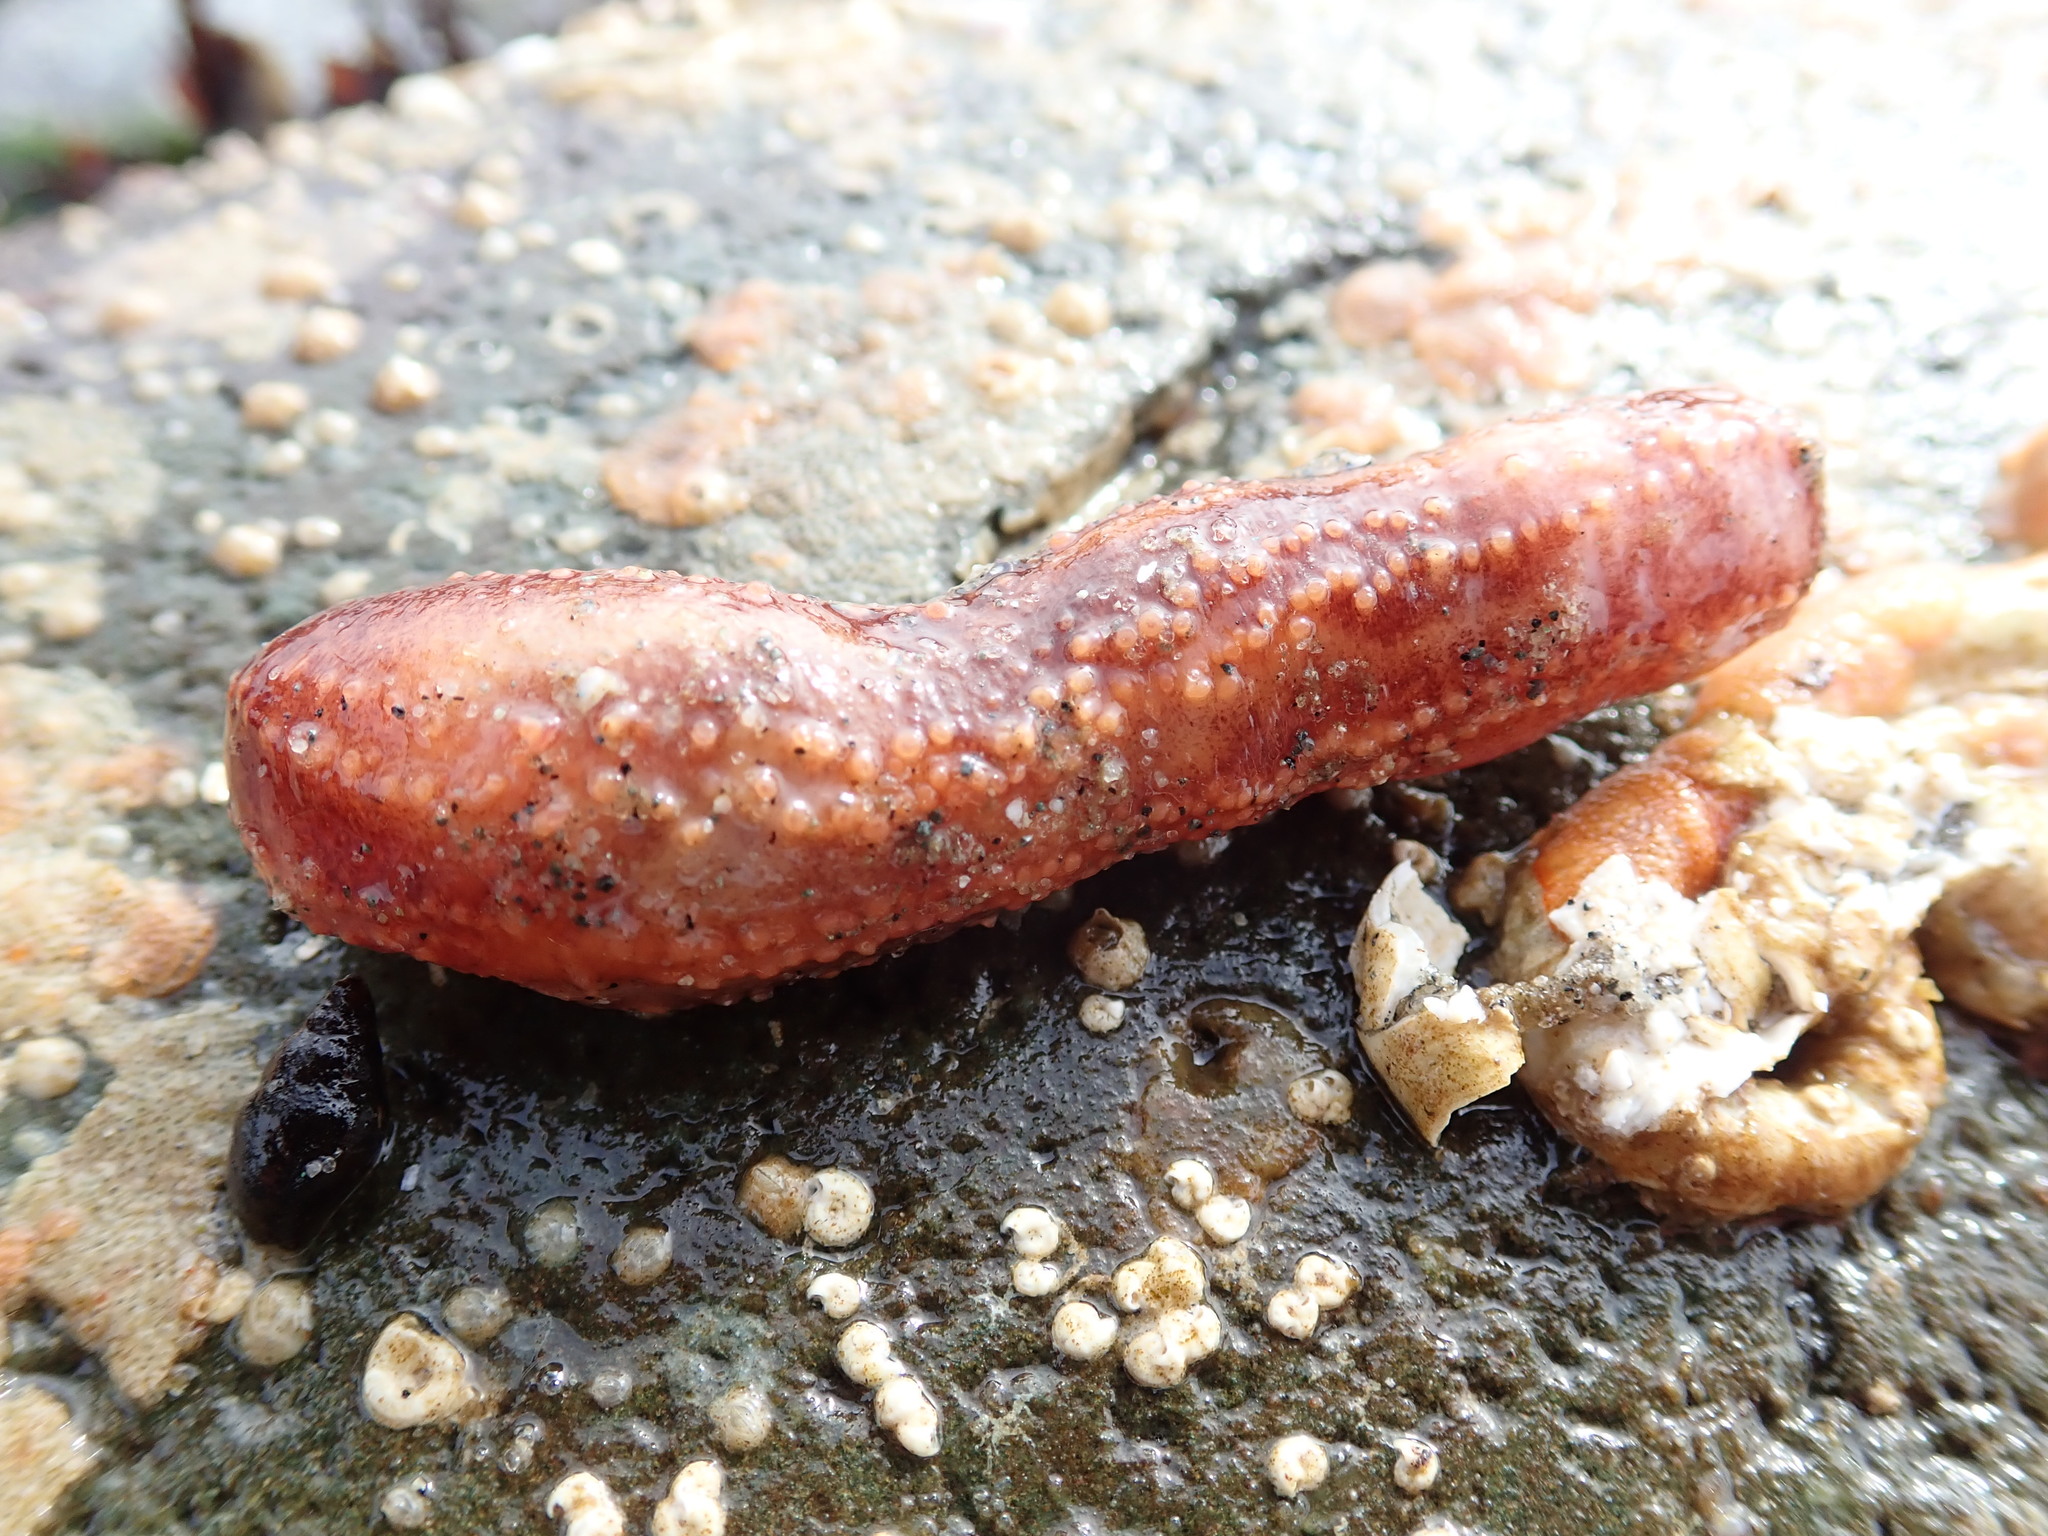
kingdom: Animalia
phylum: Echinodermata
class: Holothuroidea
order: Dendrochirotida
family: Cucumariidae
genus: Cucumaria
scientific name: Cucumaria miniata
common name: Orange sea cucumber
